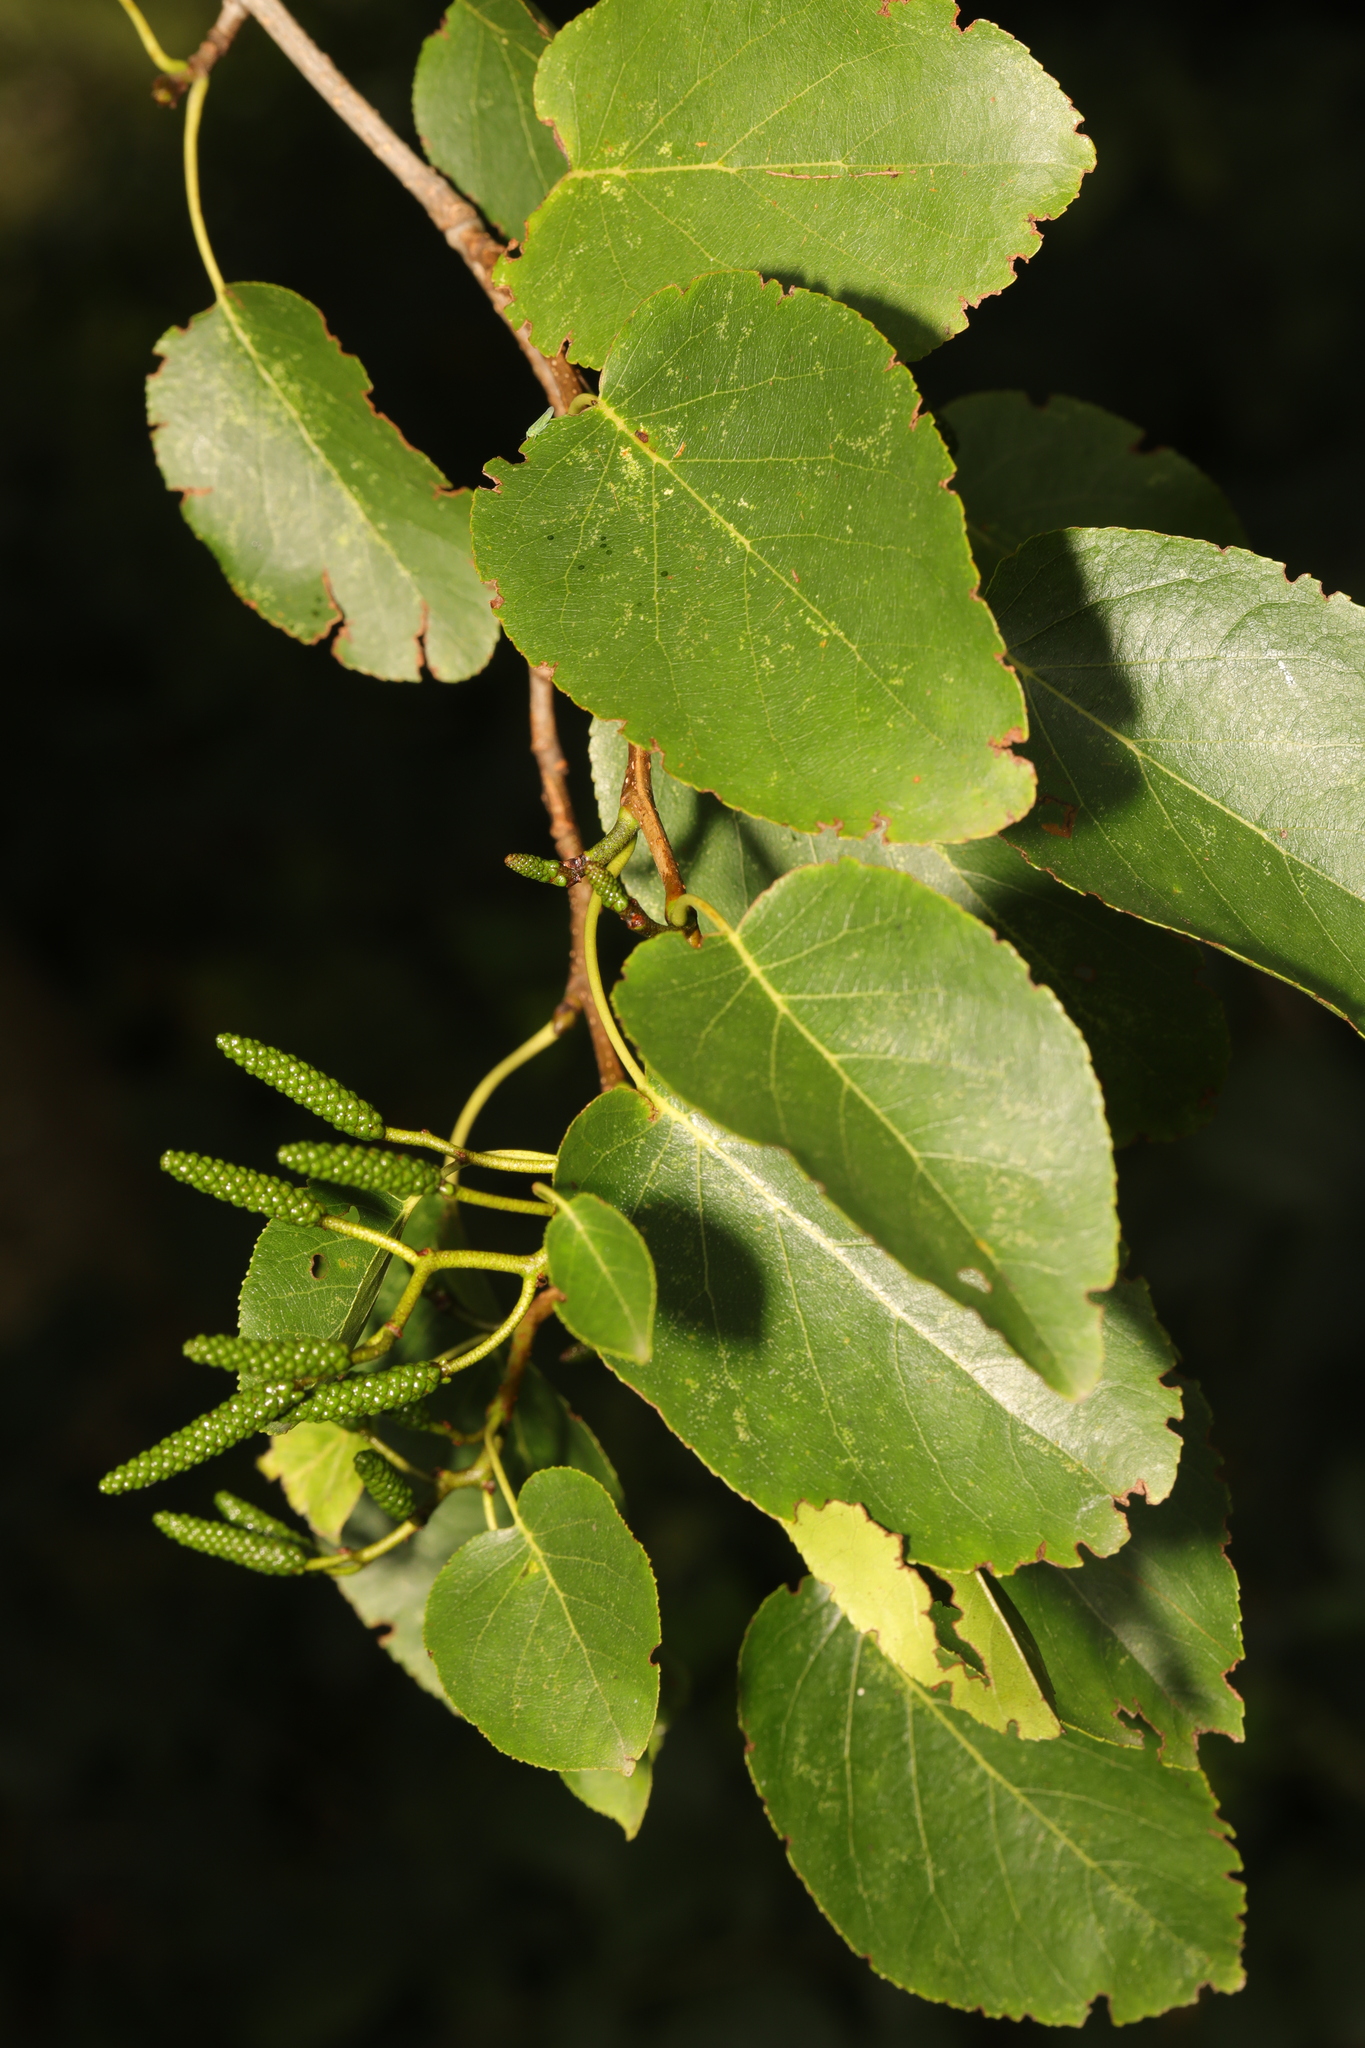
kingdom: Plantae
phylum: Tracheophyta
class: Magnoliopsida
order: Fagales
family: Betulaceae
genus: Alnus
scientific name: Alnus cordata
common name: Italian alder
